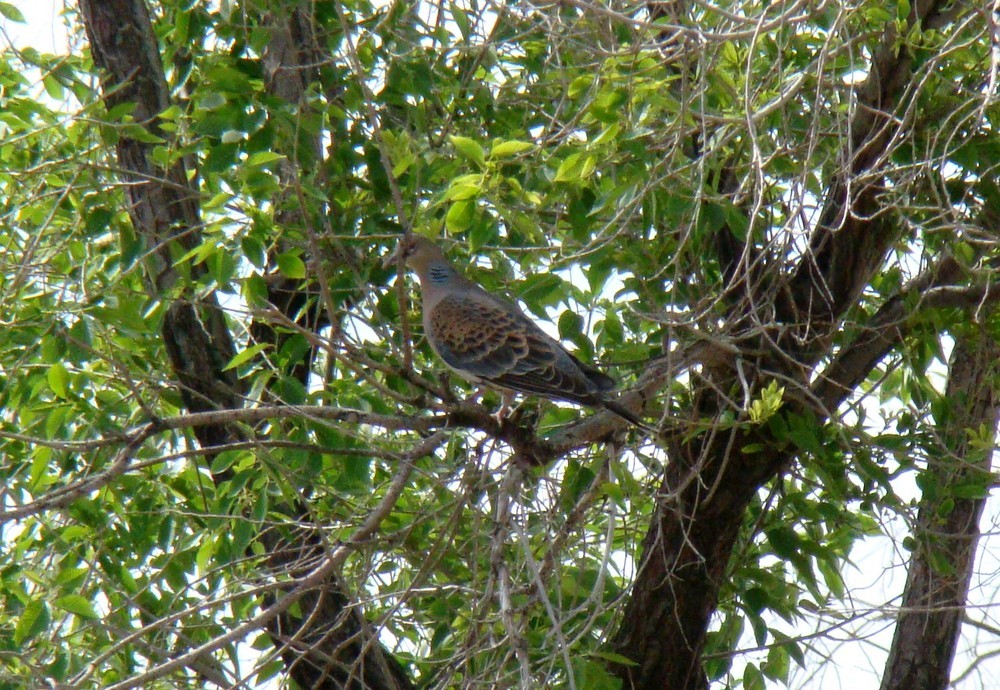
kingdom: Animalia
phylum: Chordata
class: Aves
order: Columbiformes
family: Columbidae
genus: Streptopelia
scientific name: Streptopelia orientalis
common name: Oriental turtle dove
